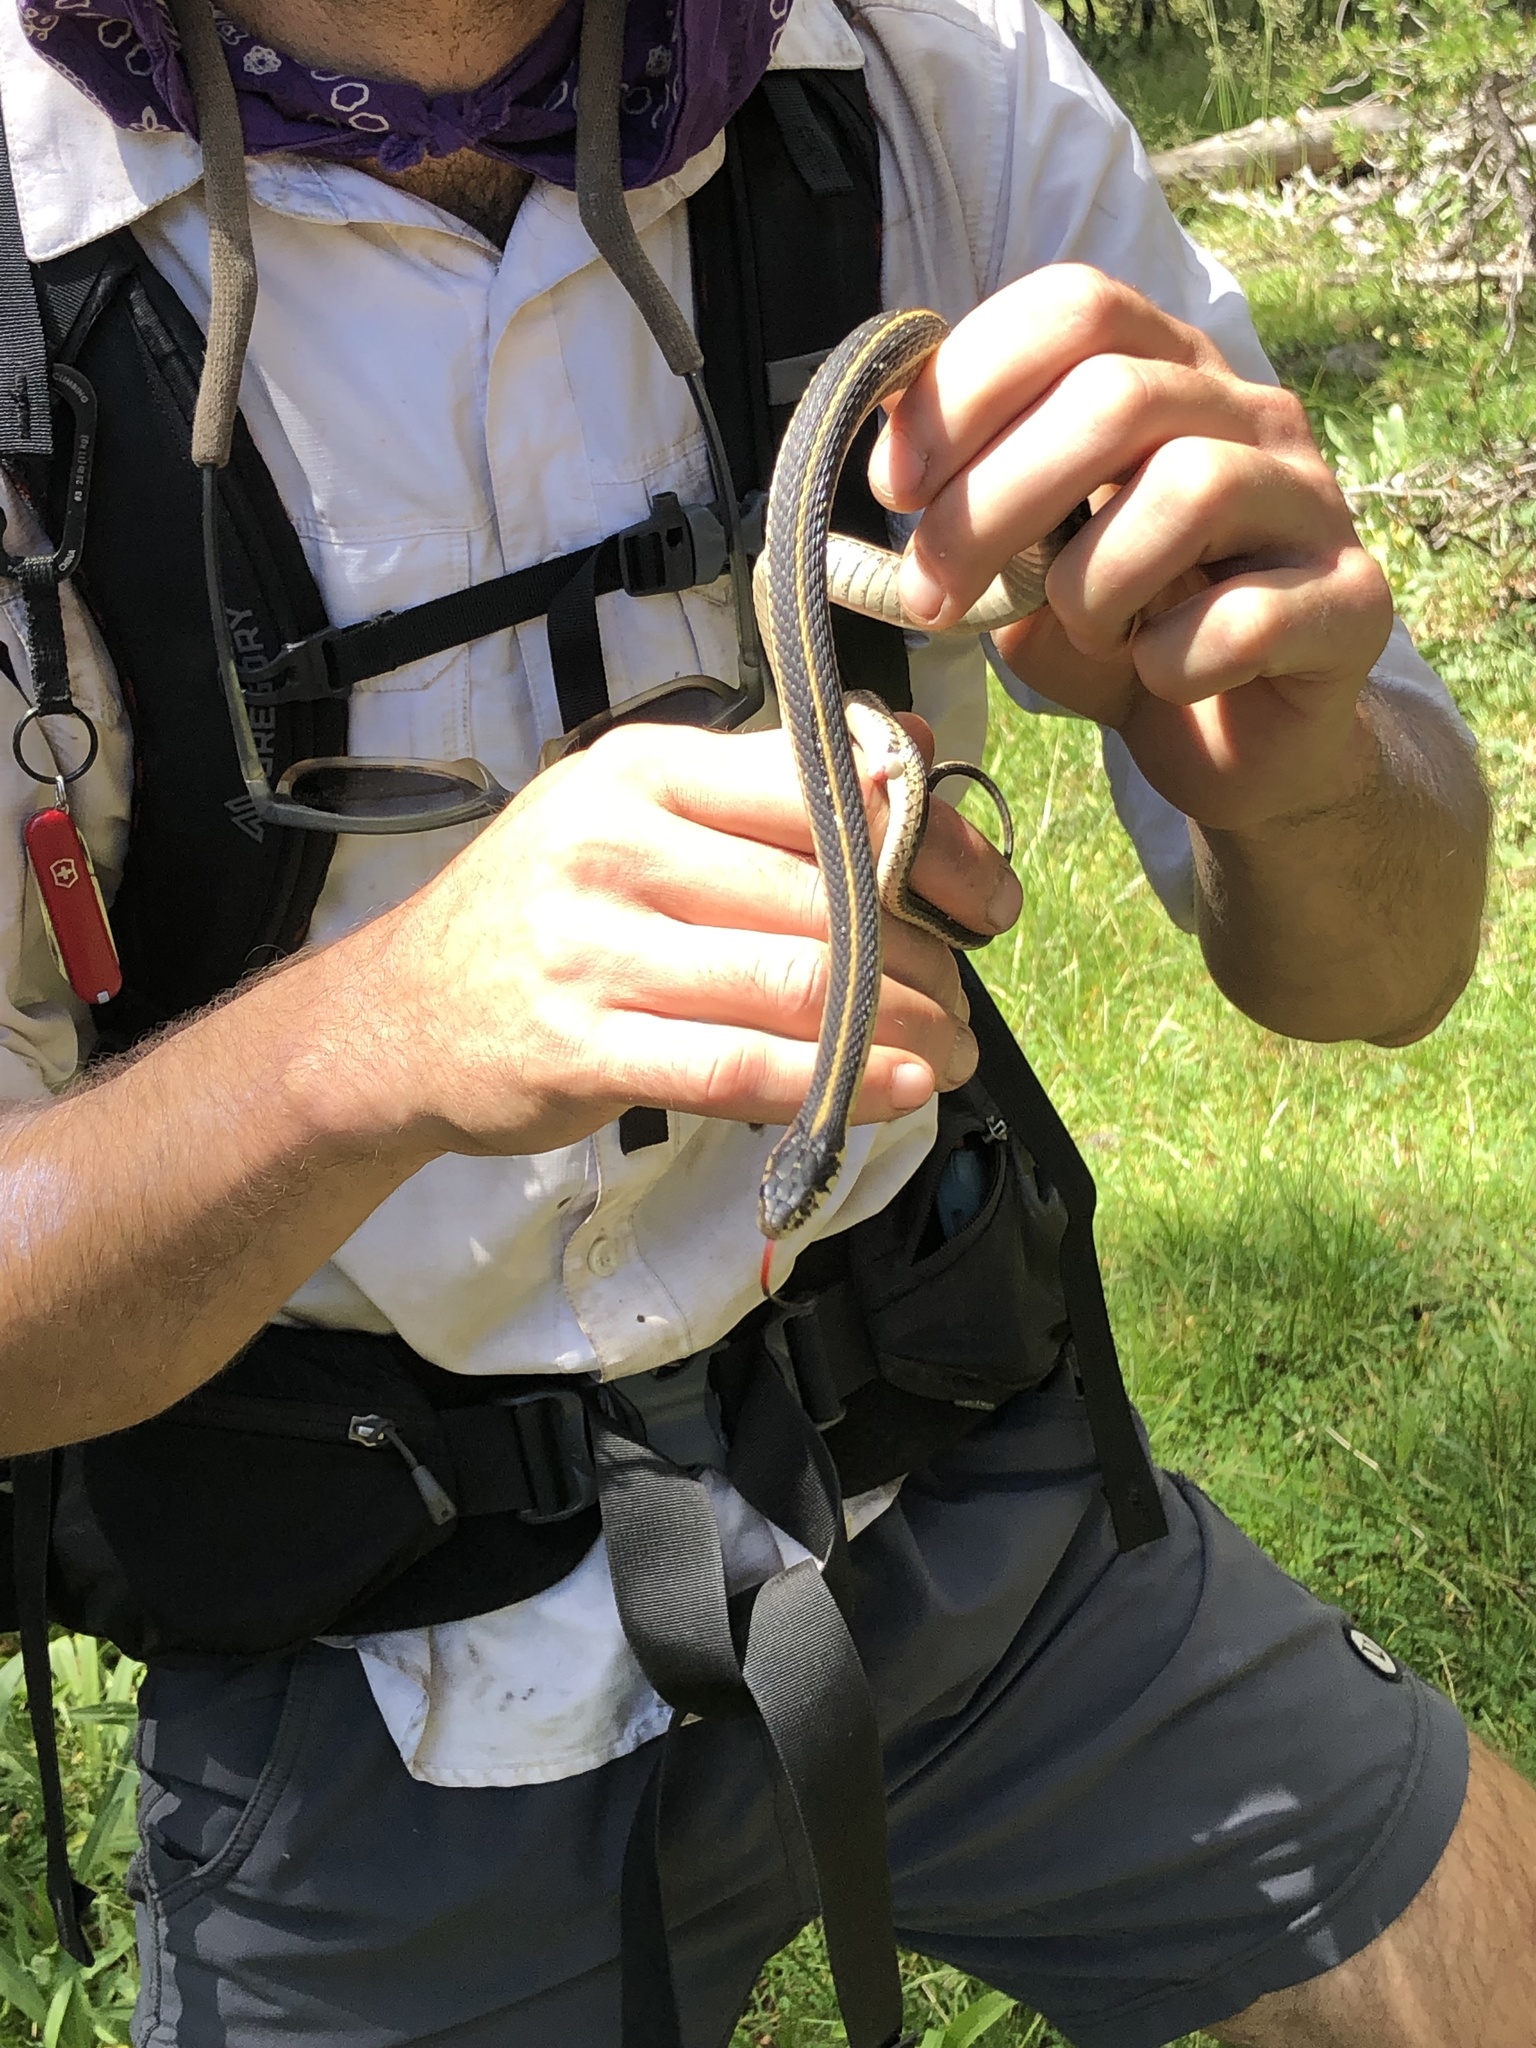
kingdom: Animalia
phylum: Chordata
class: Squamata
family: Colubridae
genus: Thamnophis
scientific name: Thamnophis elegans
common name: Western terrestrial garter snake
